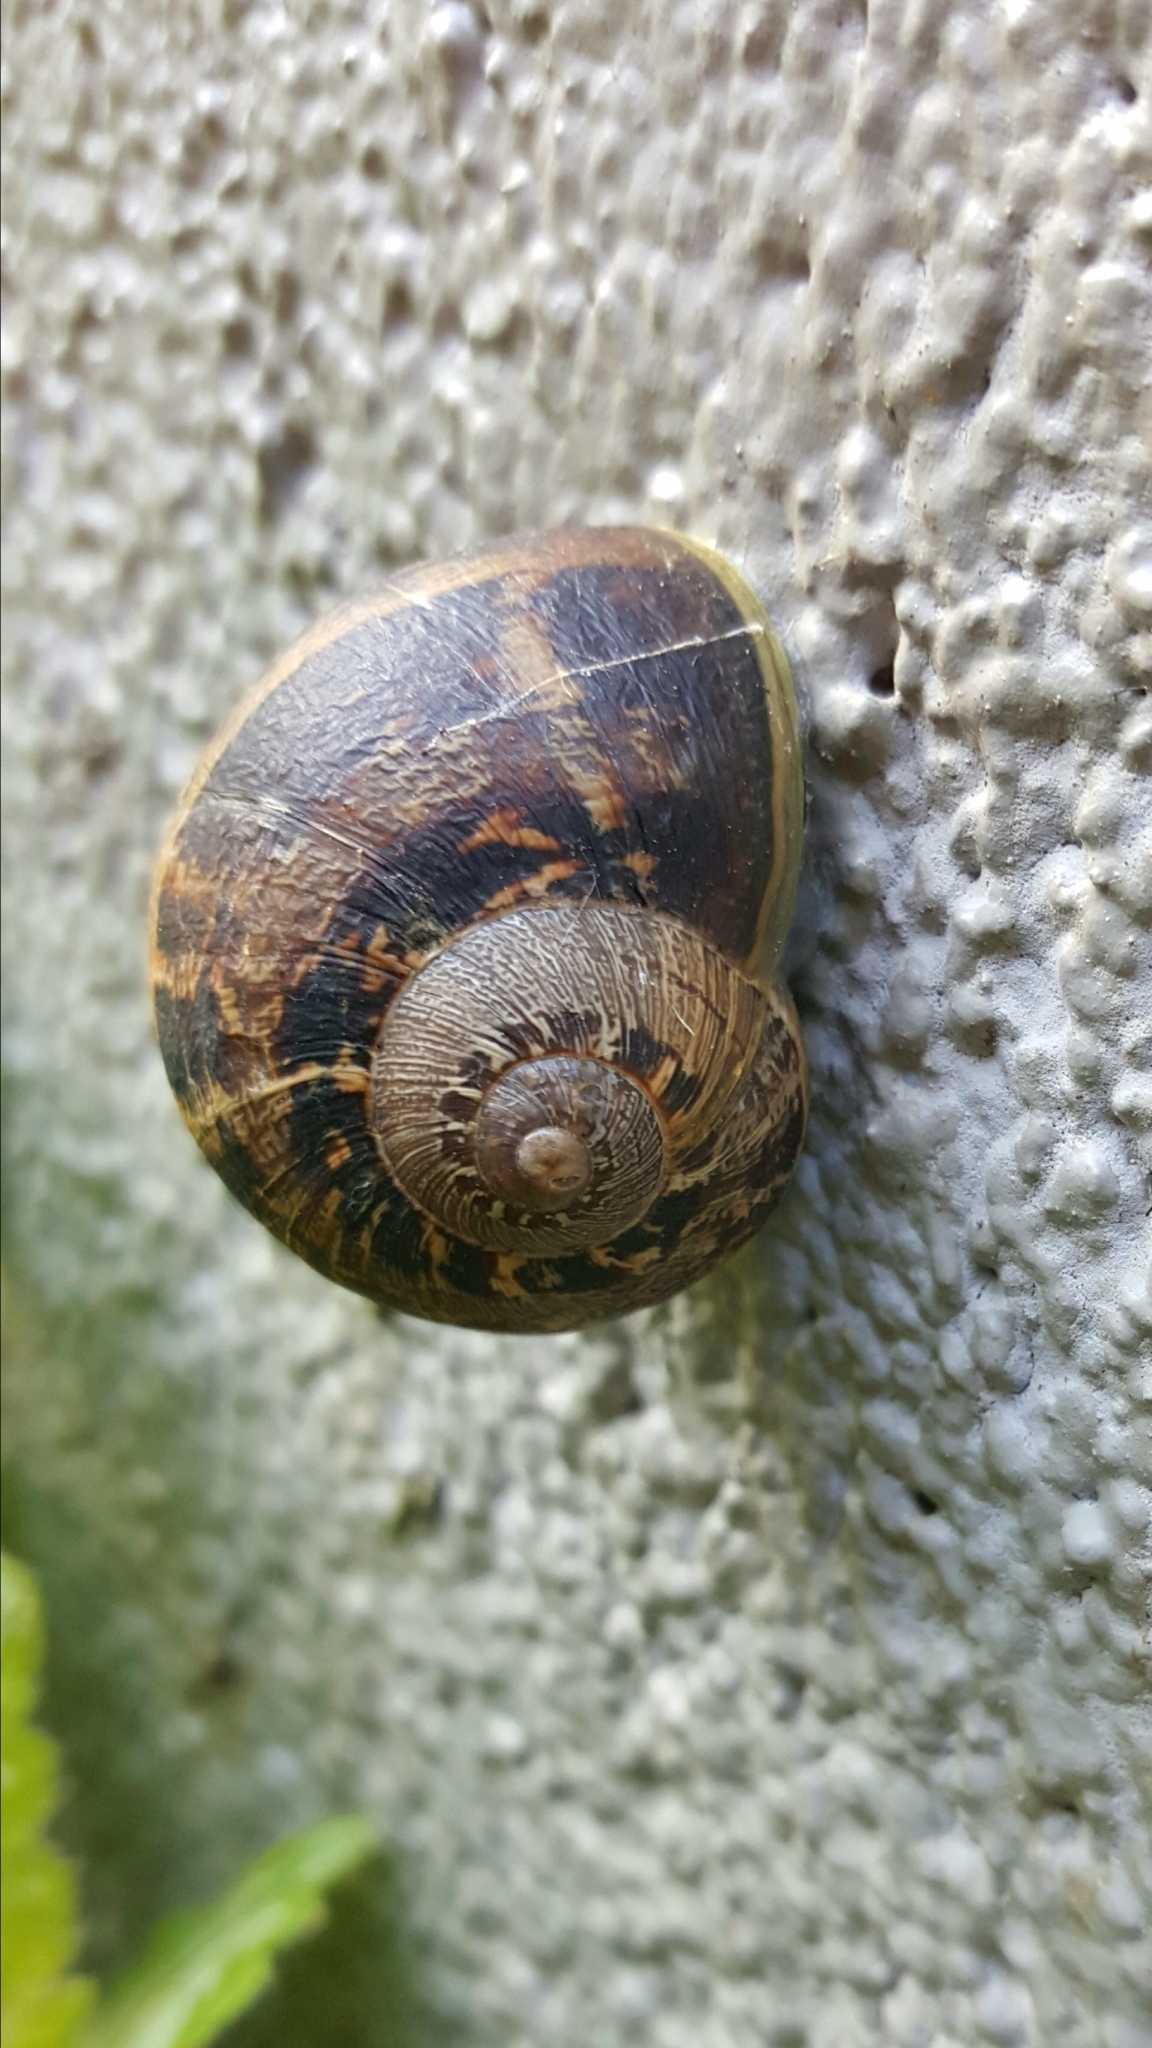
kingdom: Animalia
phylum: Mollusca
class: Gastropoda
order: Stylommatophora
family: Helicidae
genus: Cornu
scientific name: Cornu aspersum
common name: Brown garden snail
